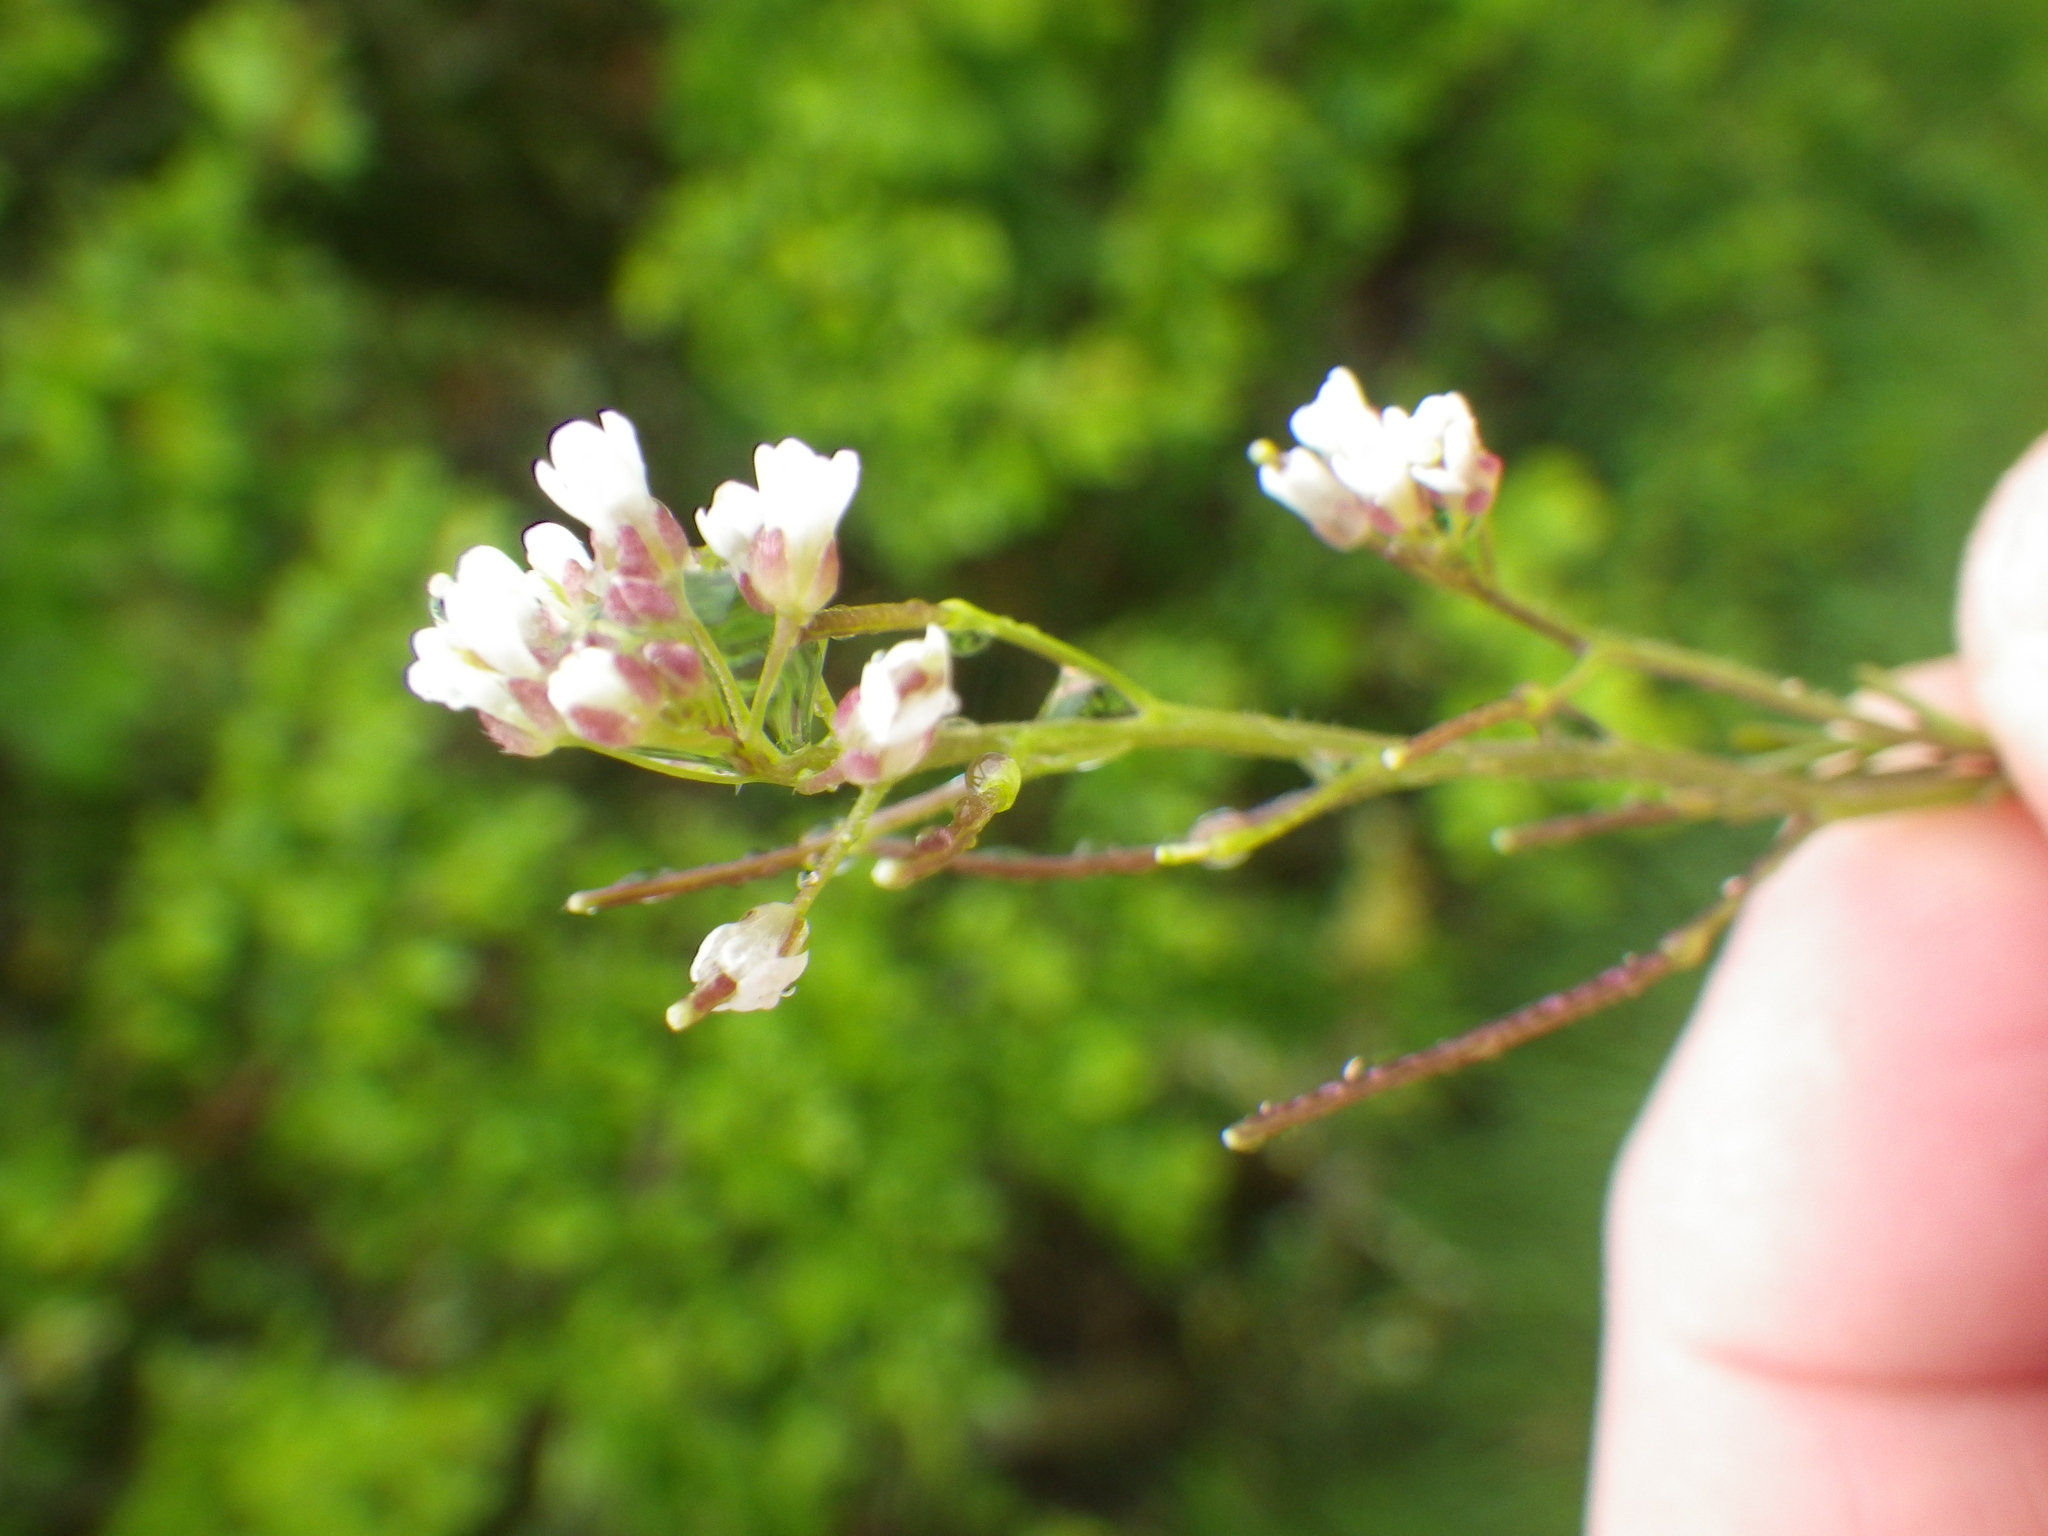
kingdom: Plantae
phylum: Tracheophyta
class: Magnoliopsida
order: Brassicales
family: Brassicaceae
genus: Cardamine
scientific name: Cardamine flexuosa
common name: Woodland bittercress
